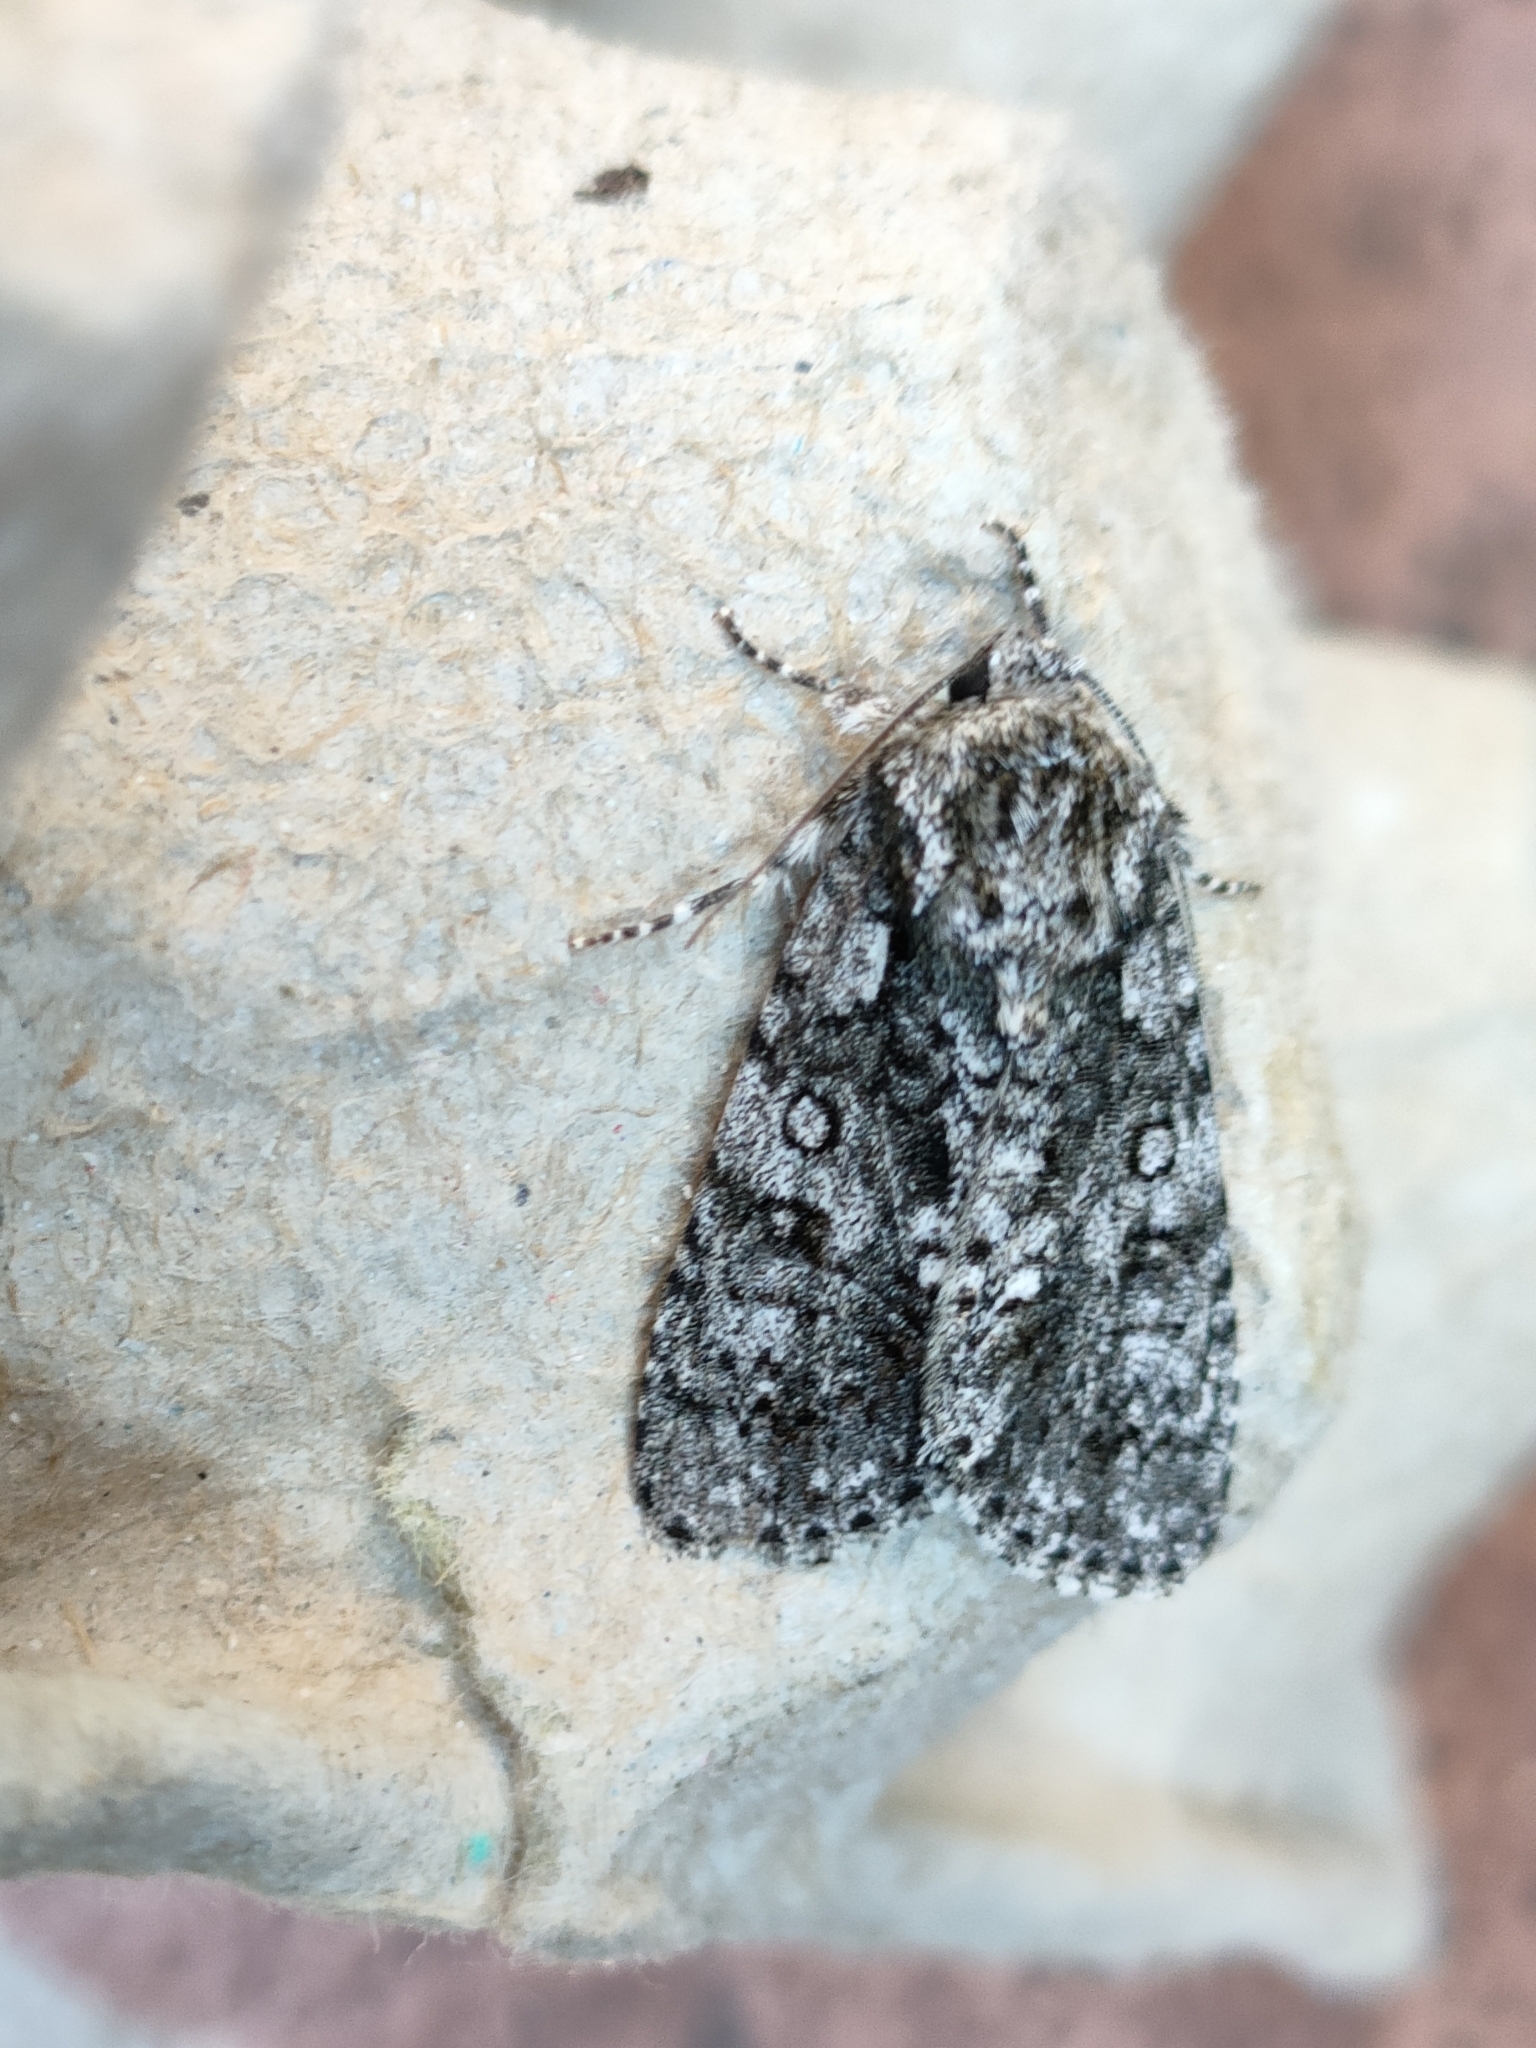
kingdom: Animalia
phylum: Arthropoda
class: Insecta
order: Lepidoptera
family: Noctuidae
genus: Acronicta
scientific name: Acronicta rumicis
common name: Knot grass
